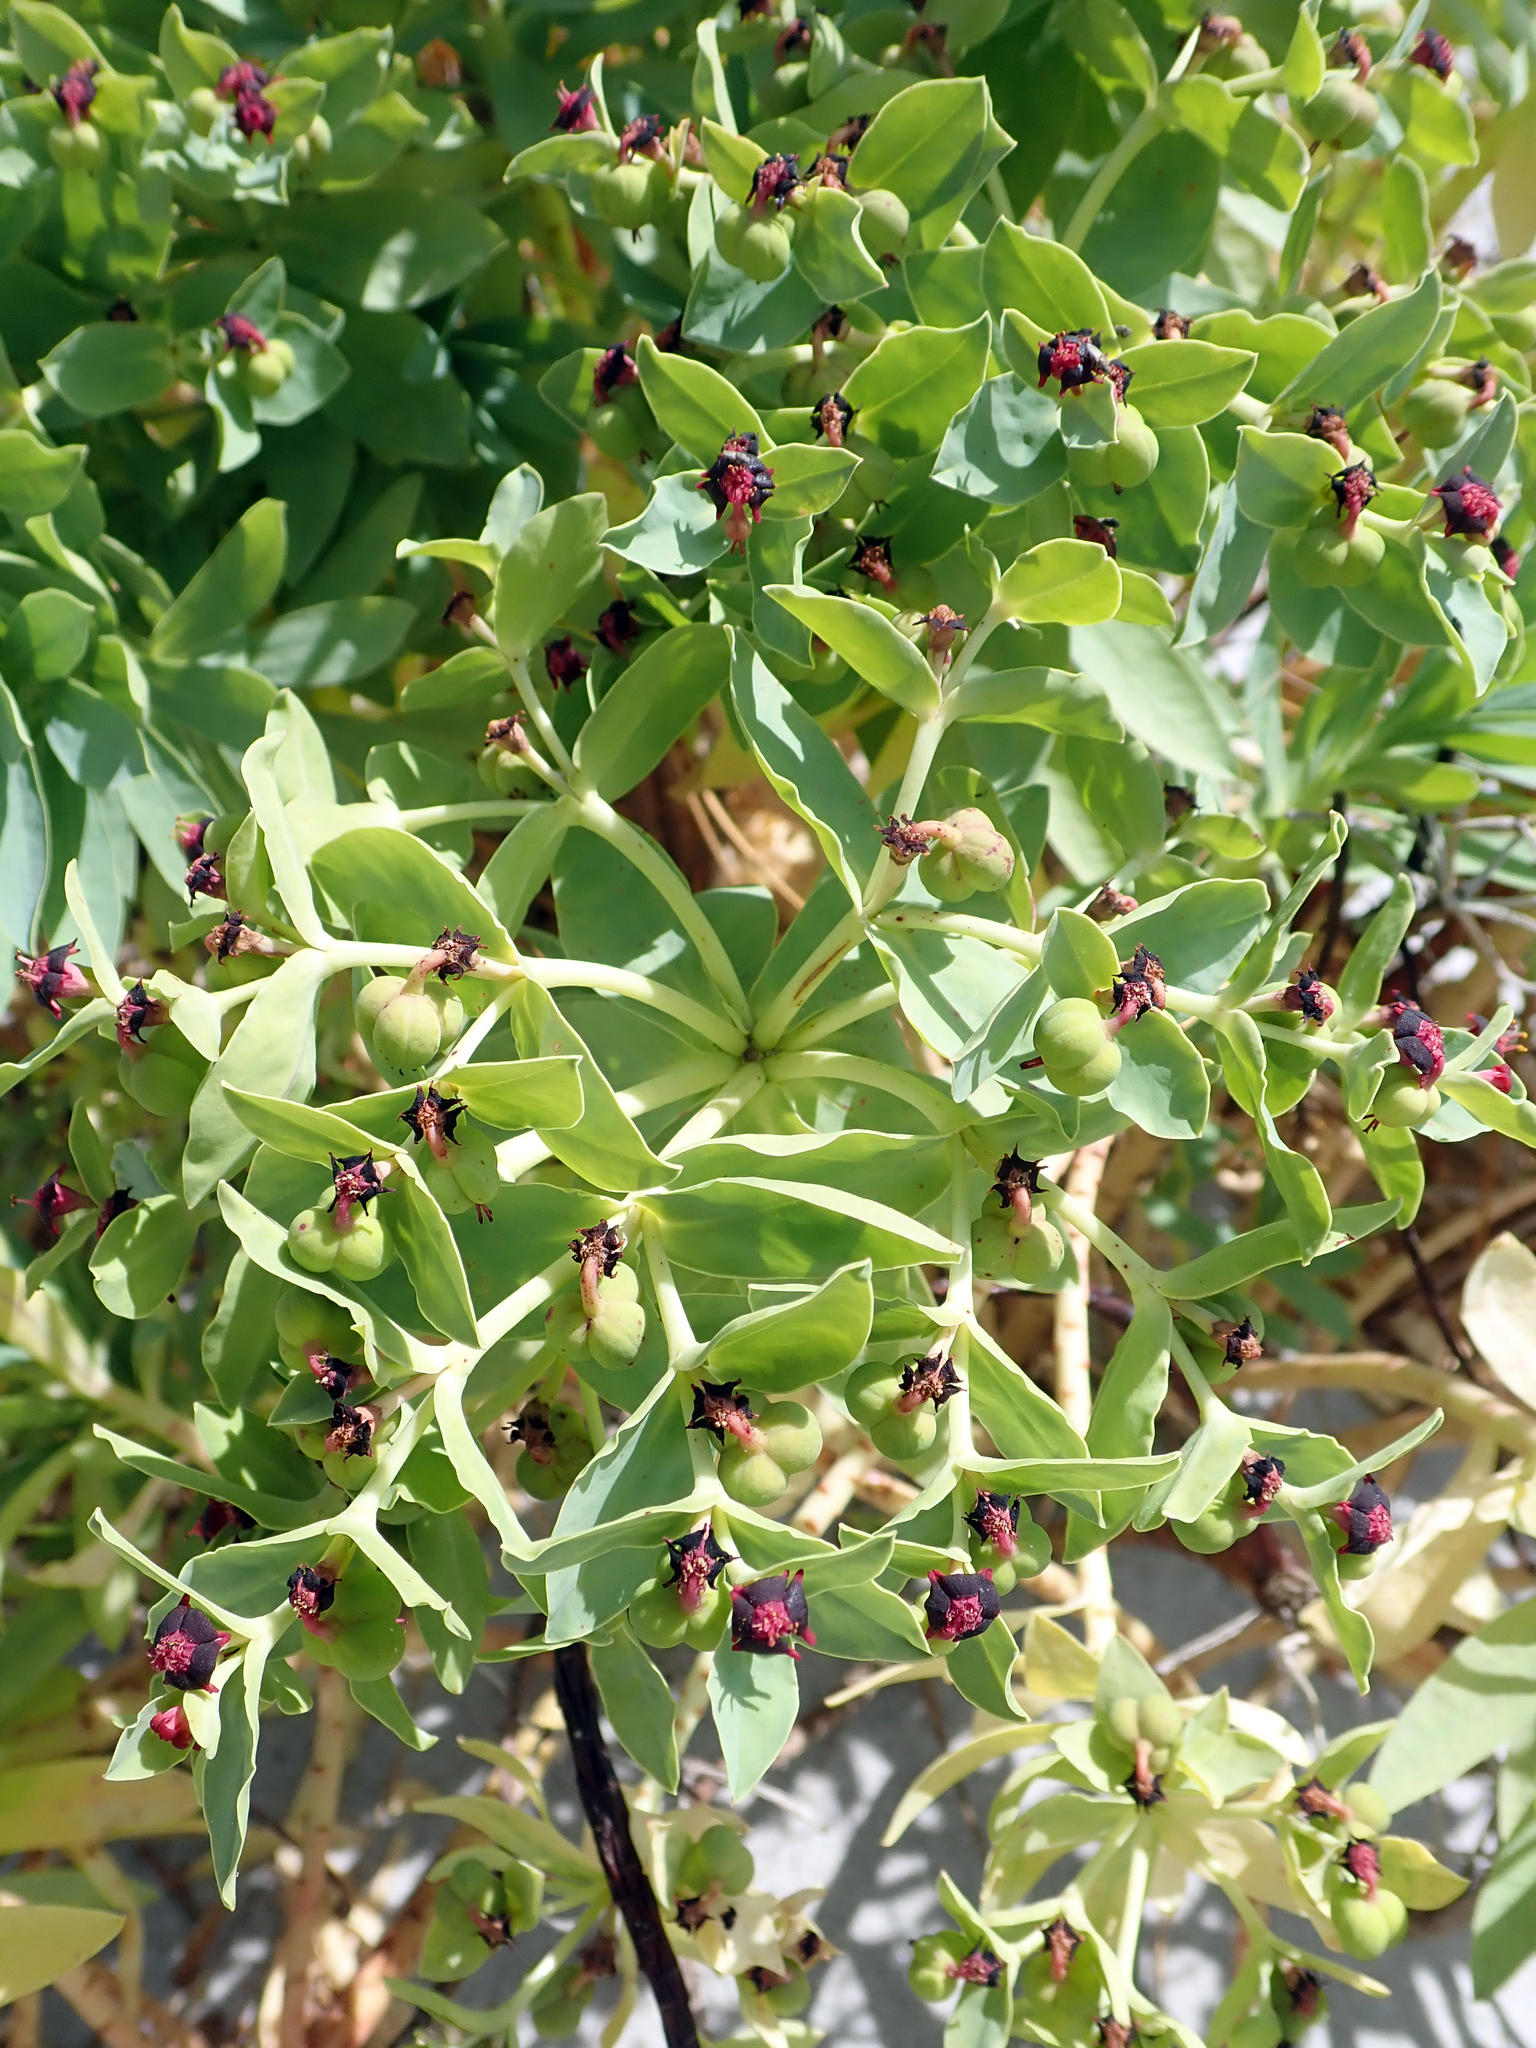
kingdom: Plantae
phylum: Tracheophyta
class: Magnoliopsida
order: Malpighiales
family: Euphorbiaceae
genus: Euphorbia
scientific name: Euphorbia glauca
